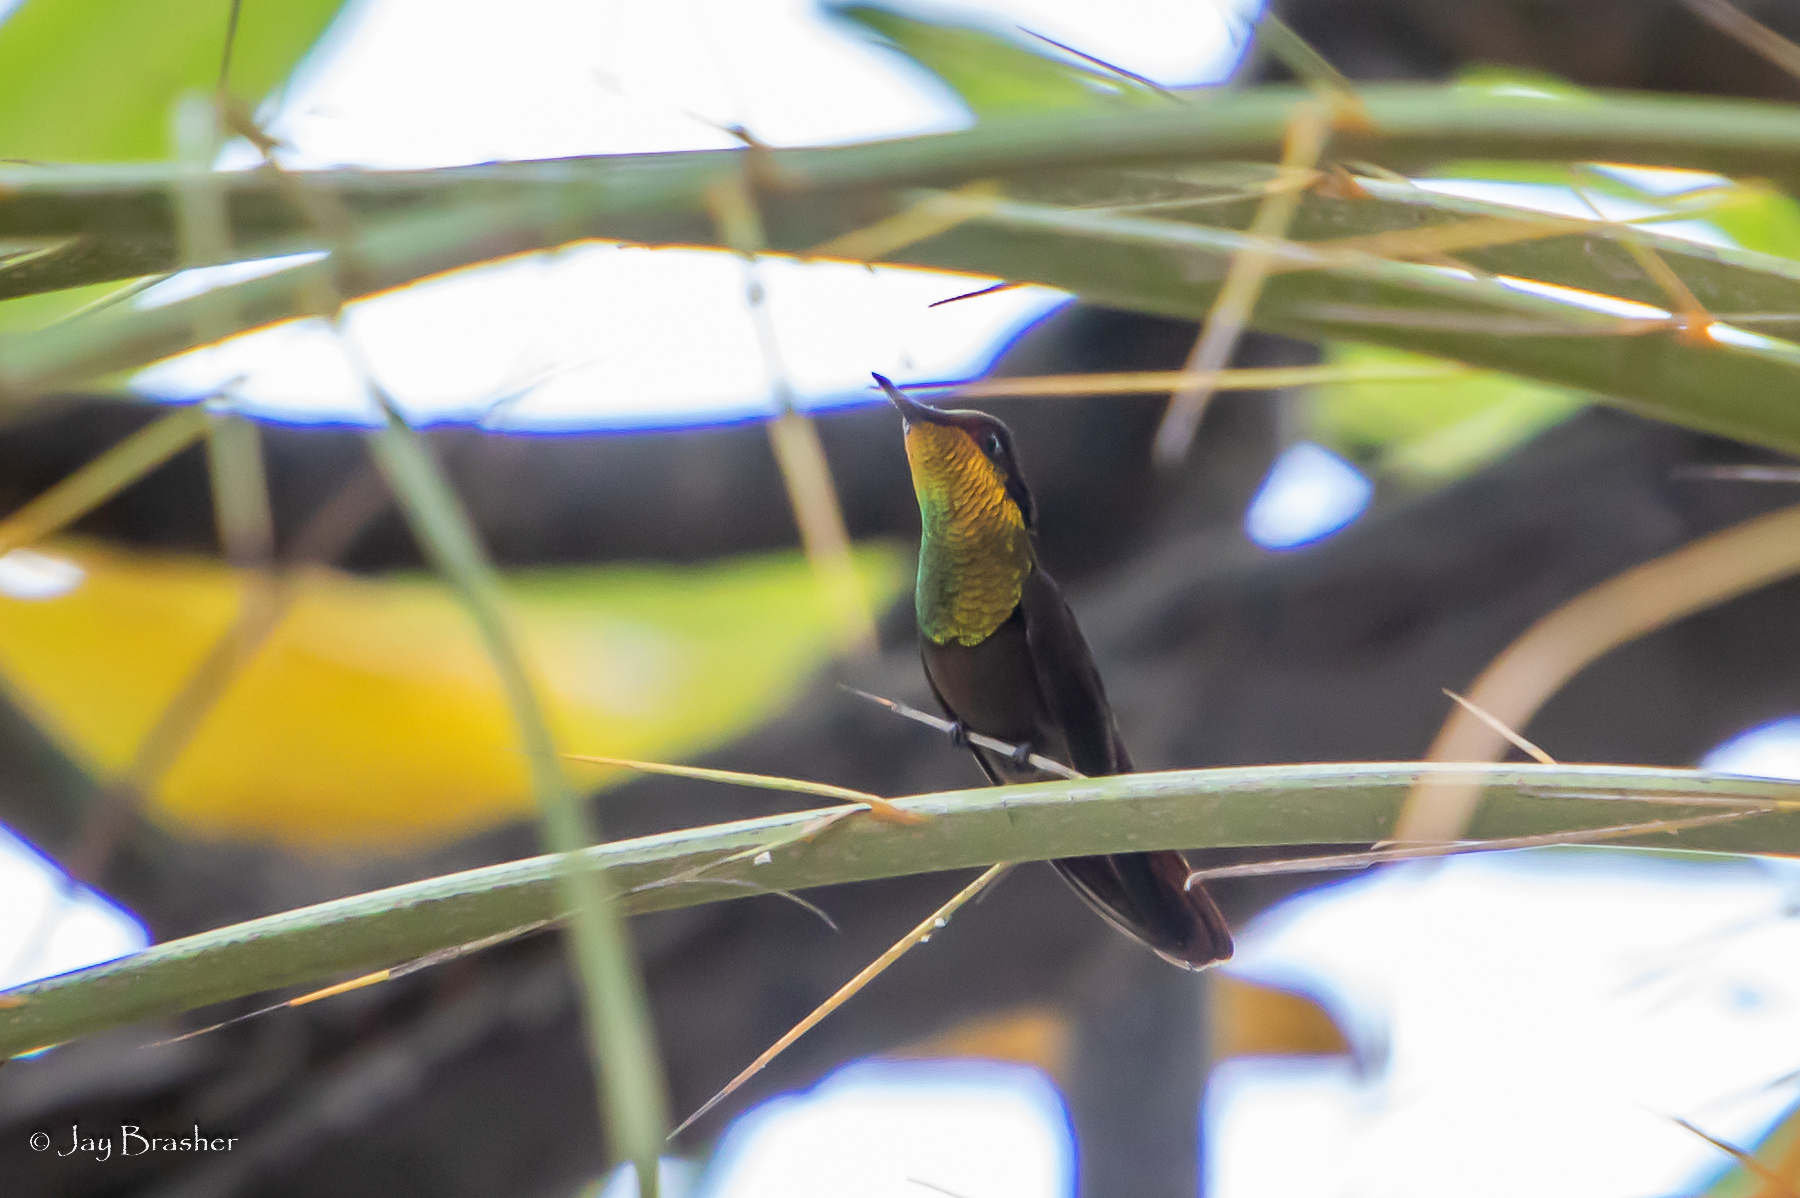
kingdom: Animalia
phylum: Chordata
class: Aves
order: Apodiformes
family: Trochilidae
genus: Chrysolampis
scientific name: Chrysolampis mosquitus
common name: Ruby-topaz hummingbird
